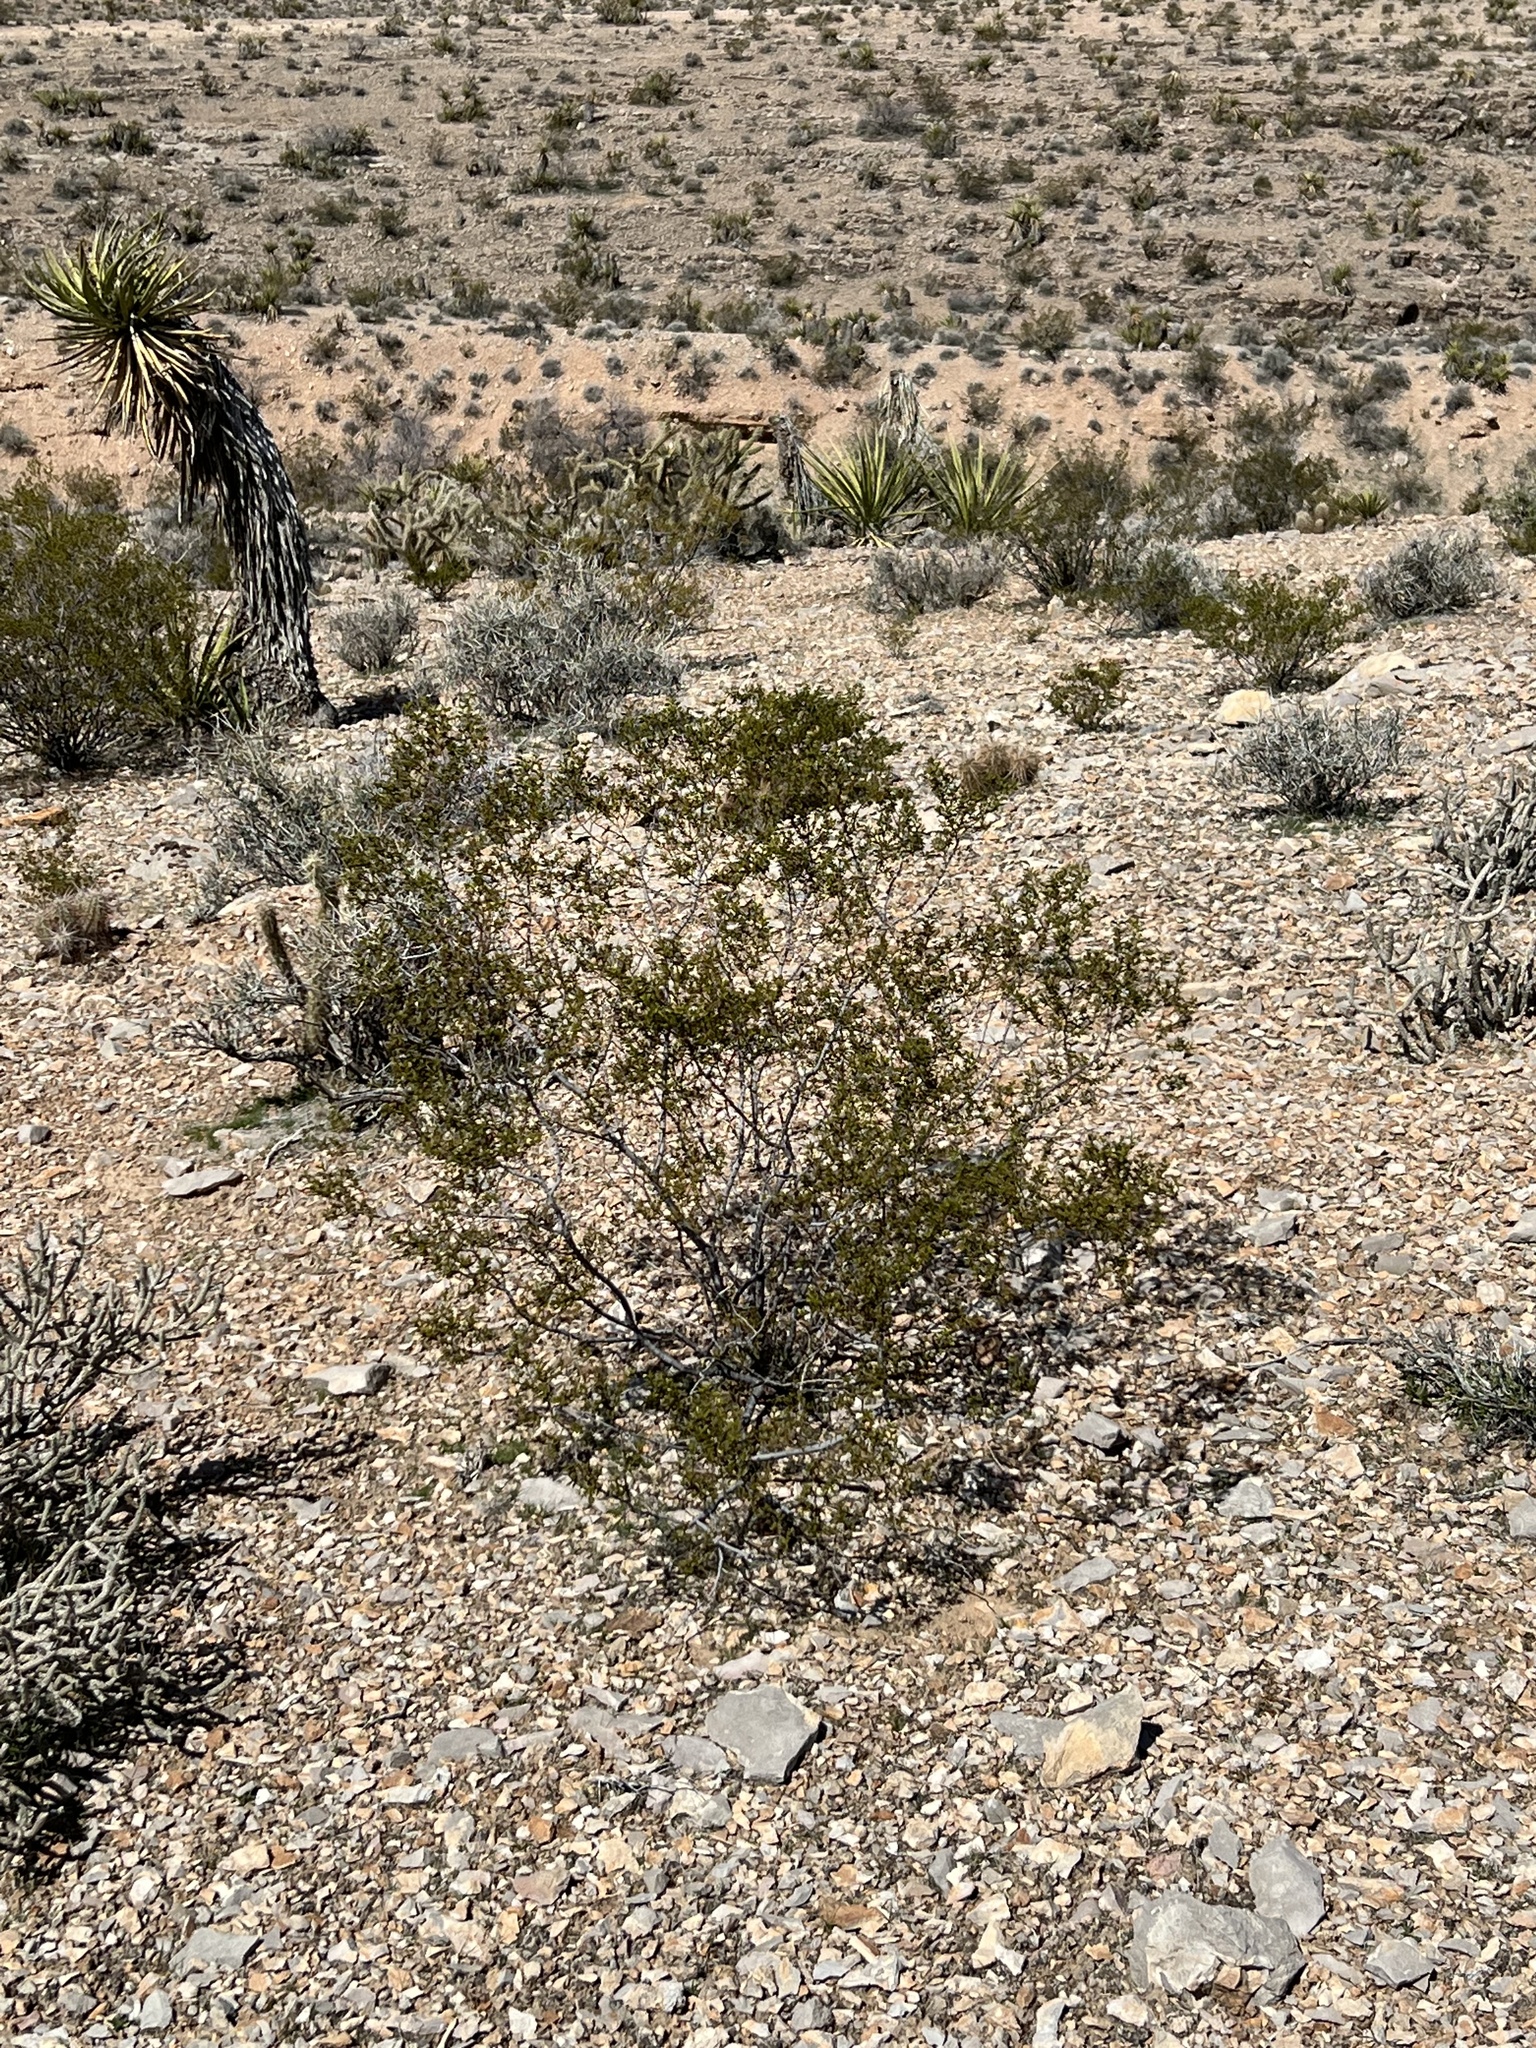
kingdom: Plantae
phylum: Tracheophyta
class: Magnoliopsida
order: Zygophyllales
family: Zygophyllaceae
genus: Larrea
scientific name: Larrea tridentata
